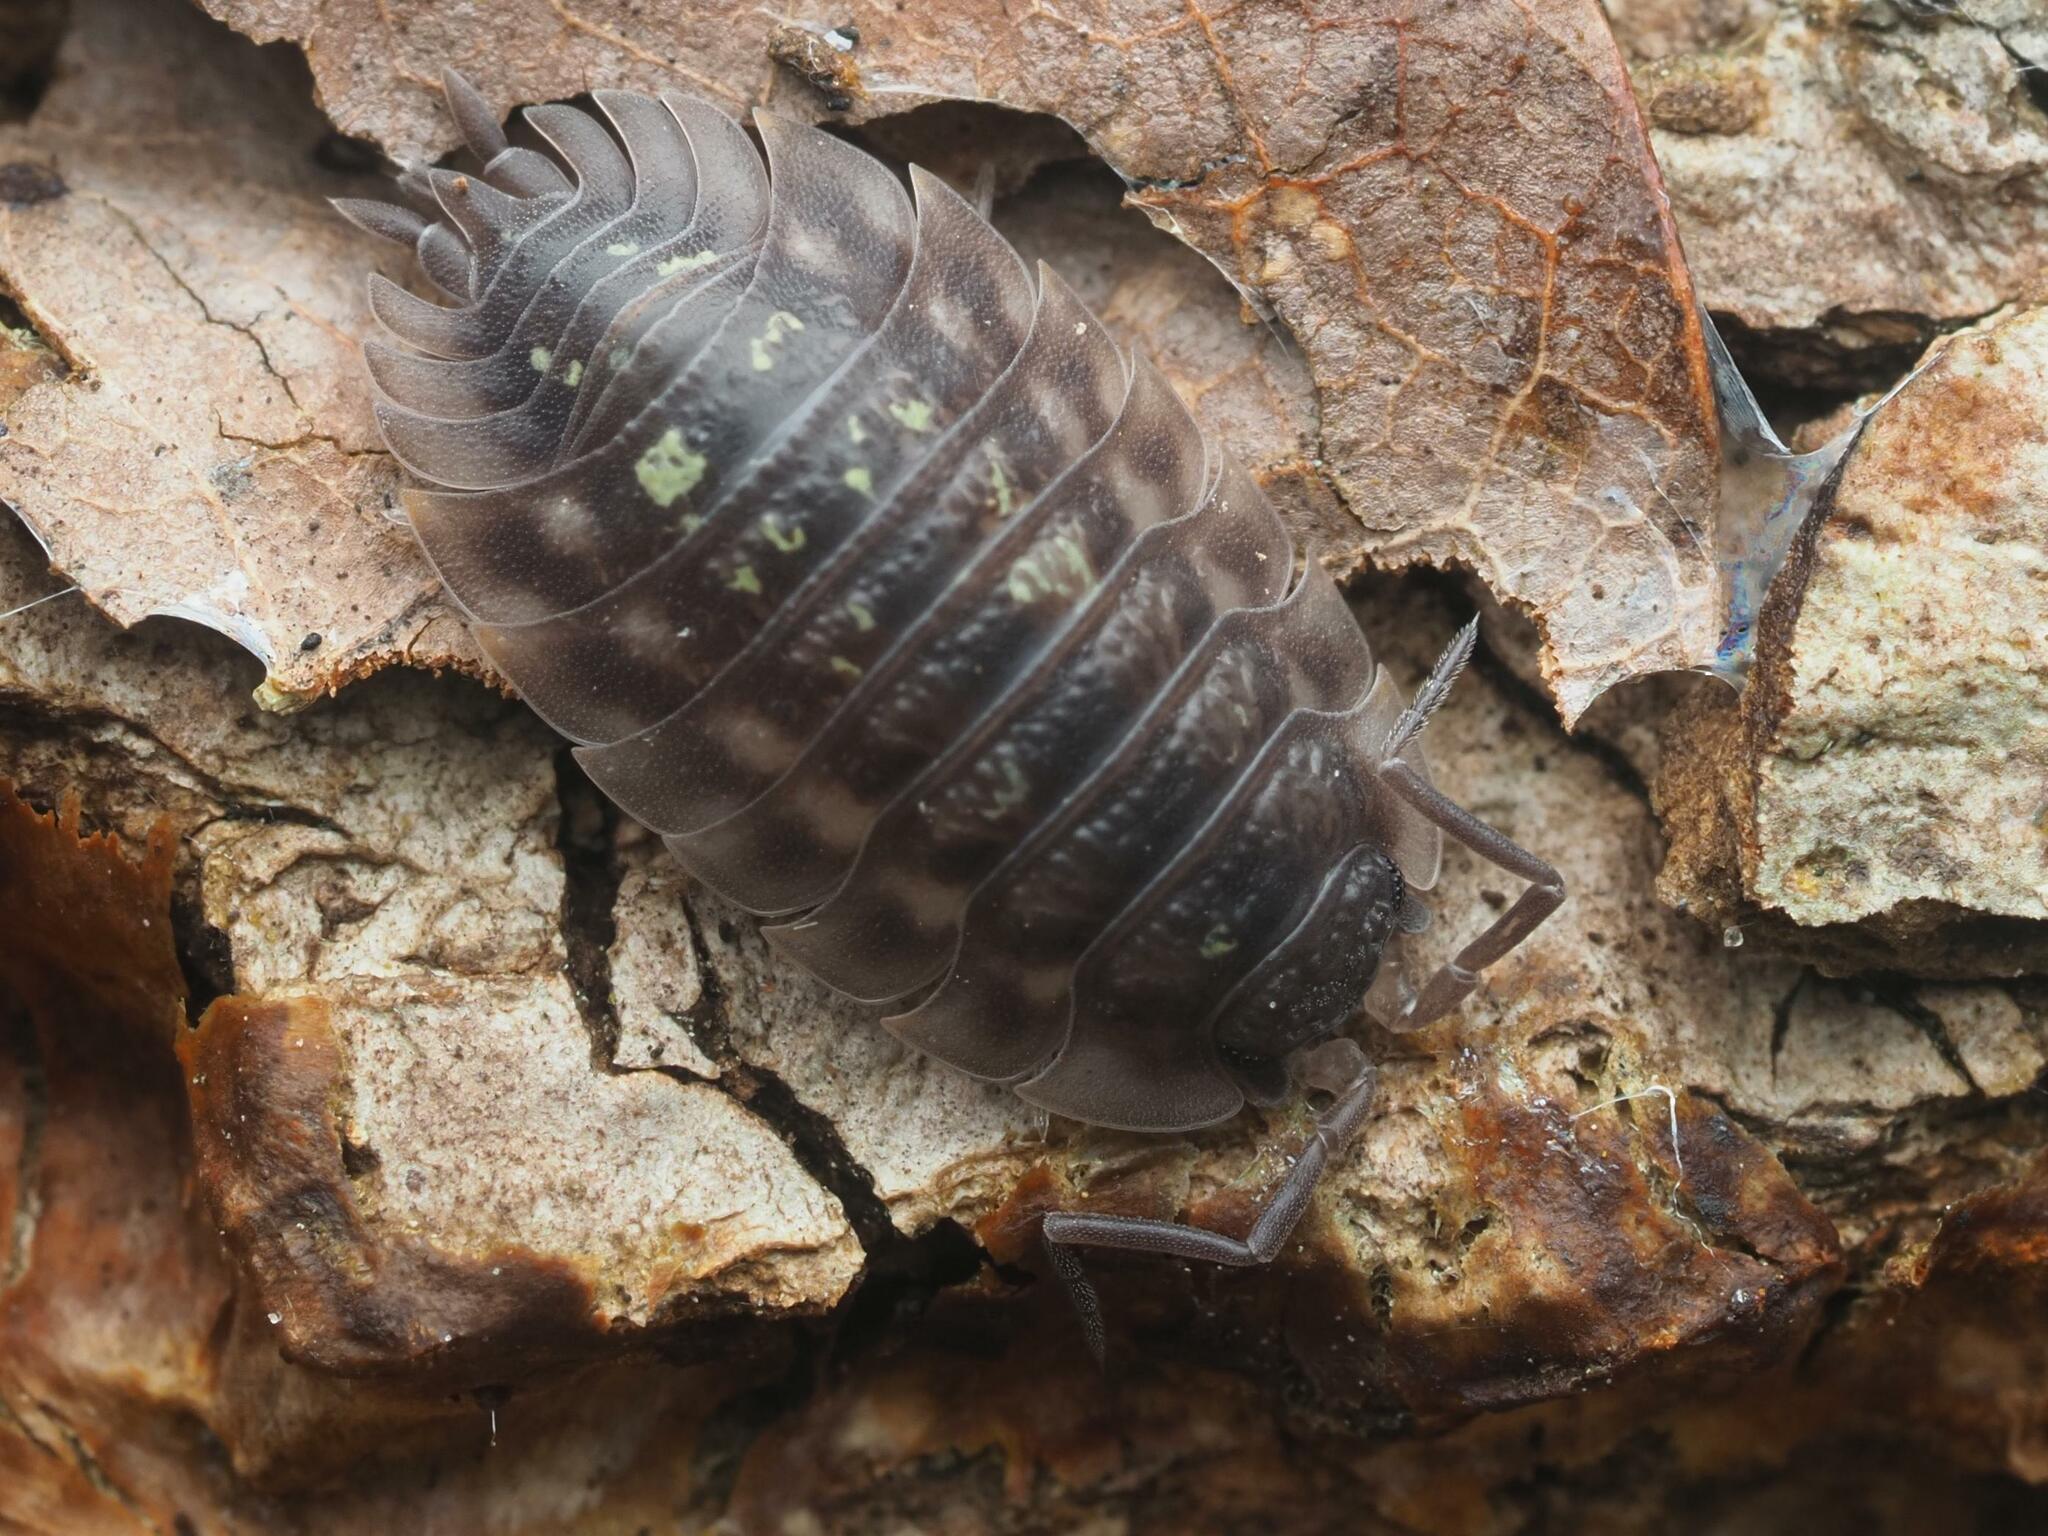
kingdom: Animalia
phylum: Arthropoda
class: Malacostraca
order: Isopoda
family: Oniscidae
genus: Oniscus
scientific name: Oniscus asellus
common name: Common shiny woodlouse
